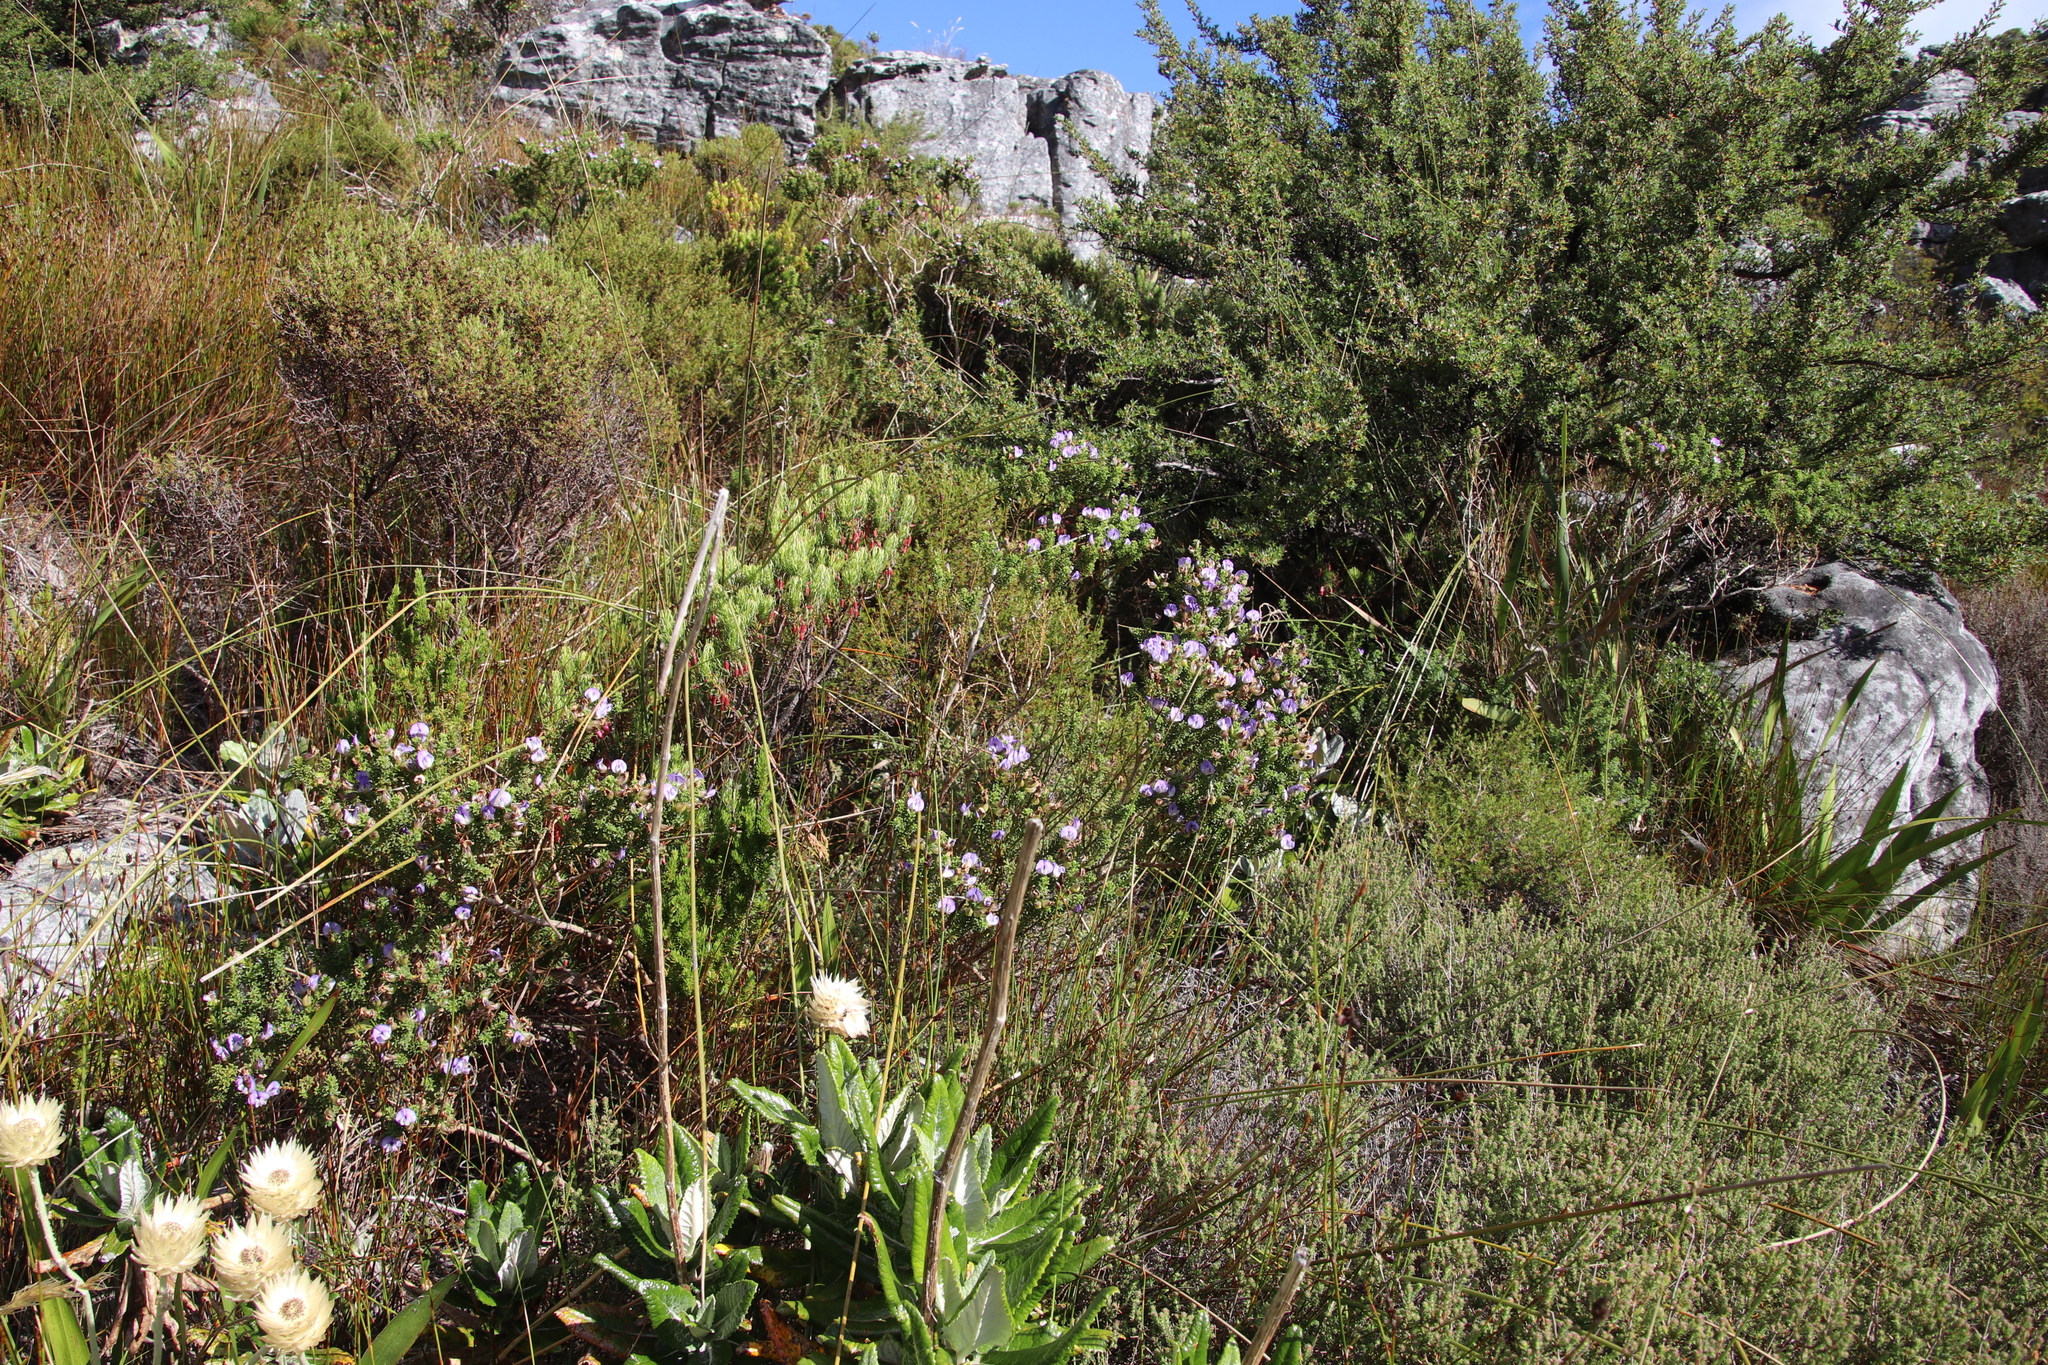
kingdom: Plantae
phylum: Tracheophyta
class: Magnoliopsida
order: Fabales
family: Fabaceae
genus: Psoralea
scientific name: Psoralea aculeata
